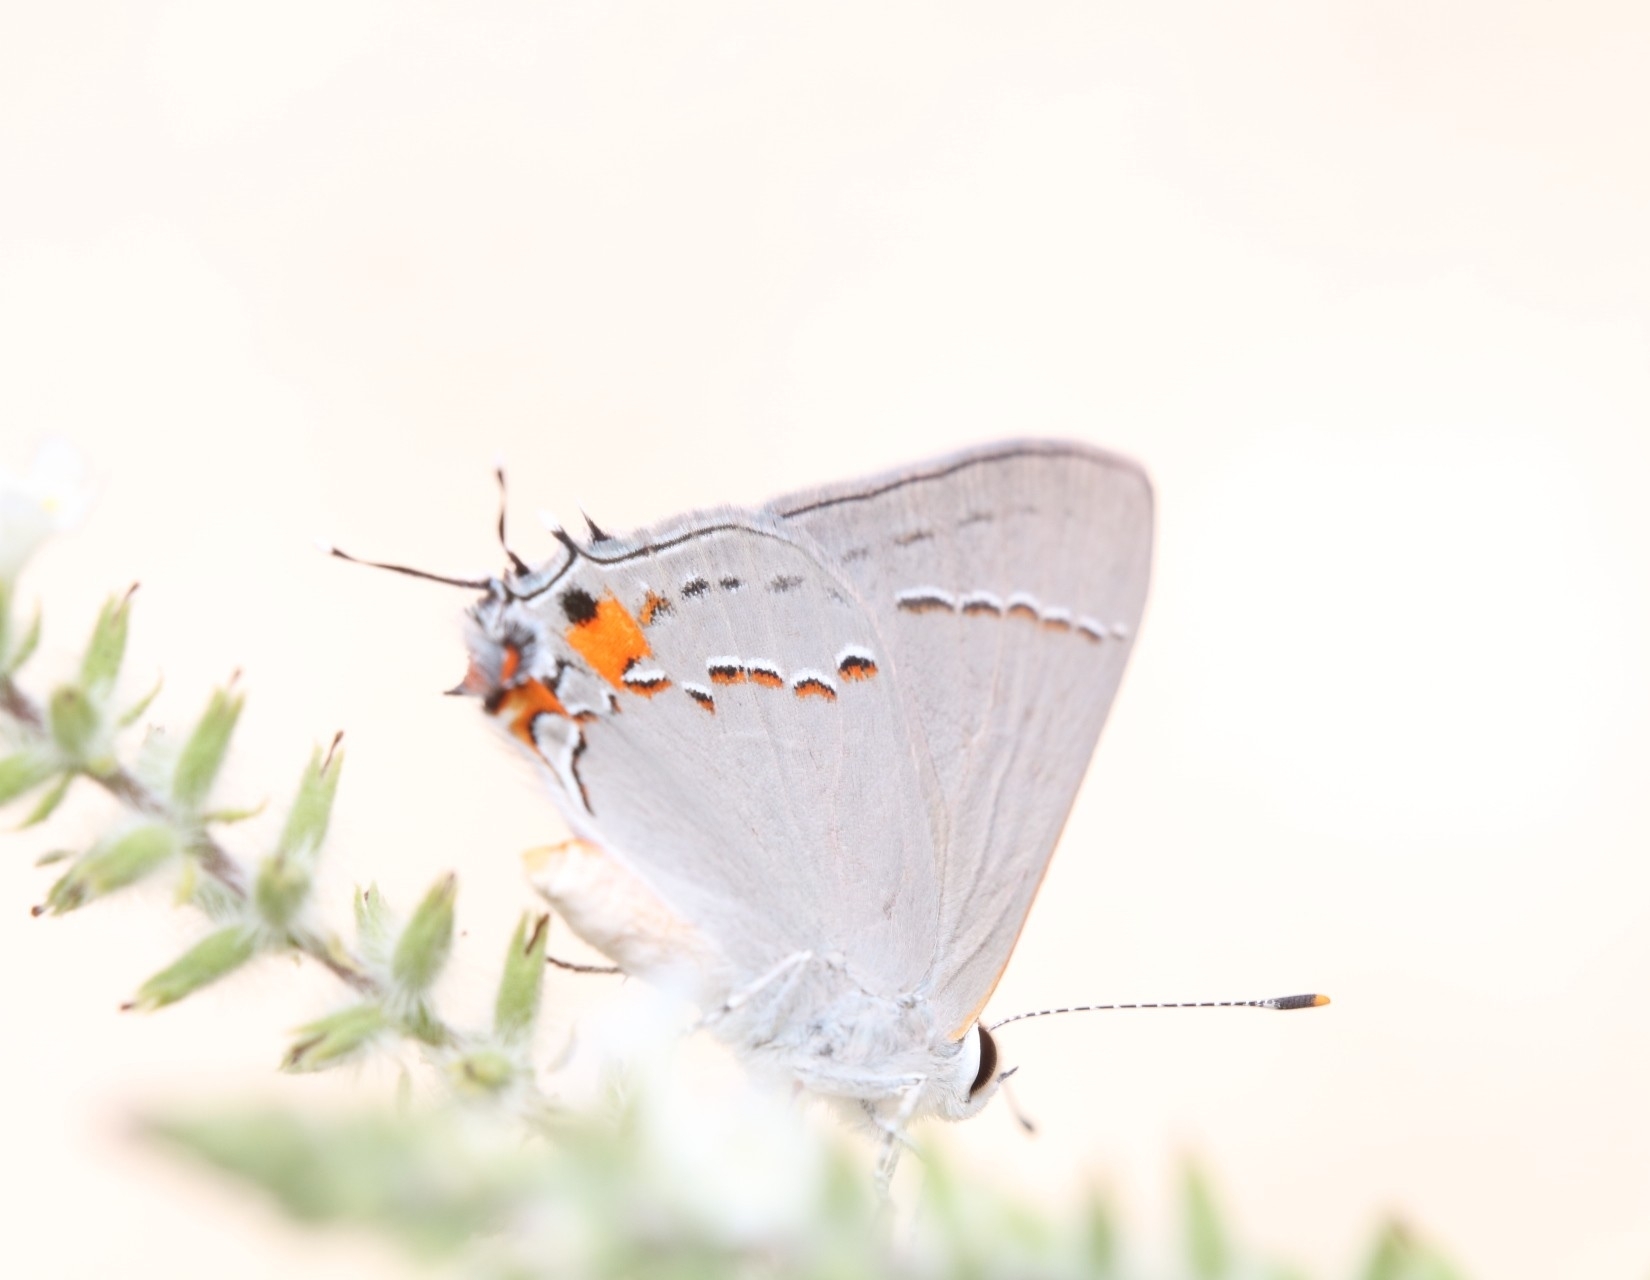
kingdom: Animalia
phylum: Arthropoda
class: Insecta
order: Lepidoptera
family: Lycaenidae
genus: Strymon
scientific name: Strymon melinus
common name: Gray hairstreak
